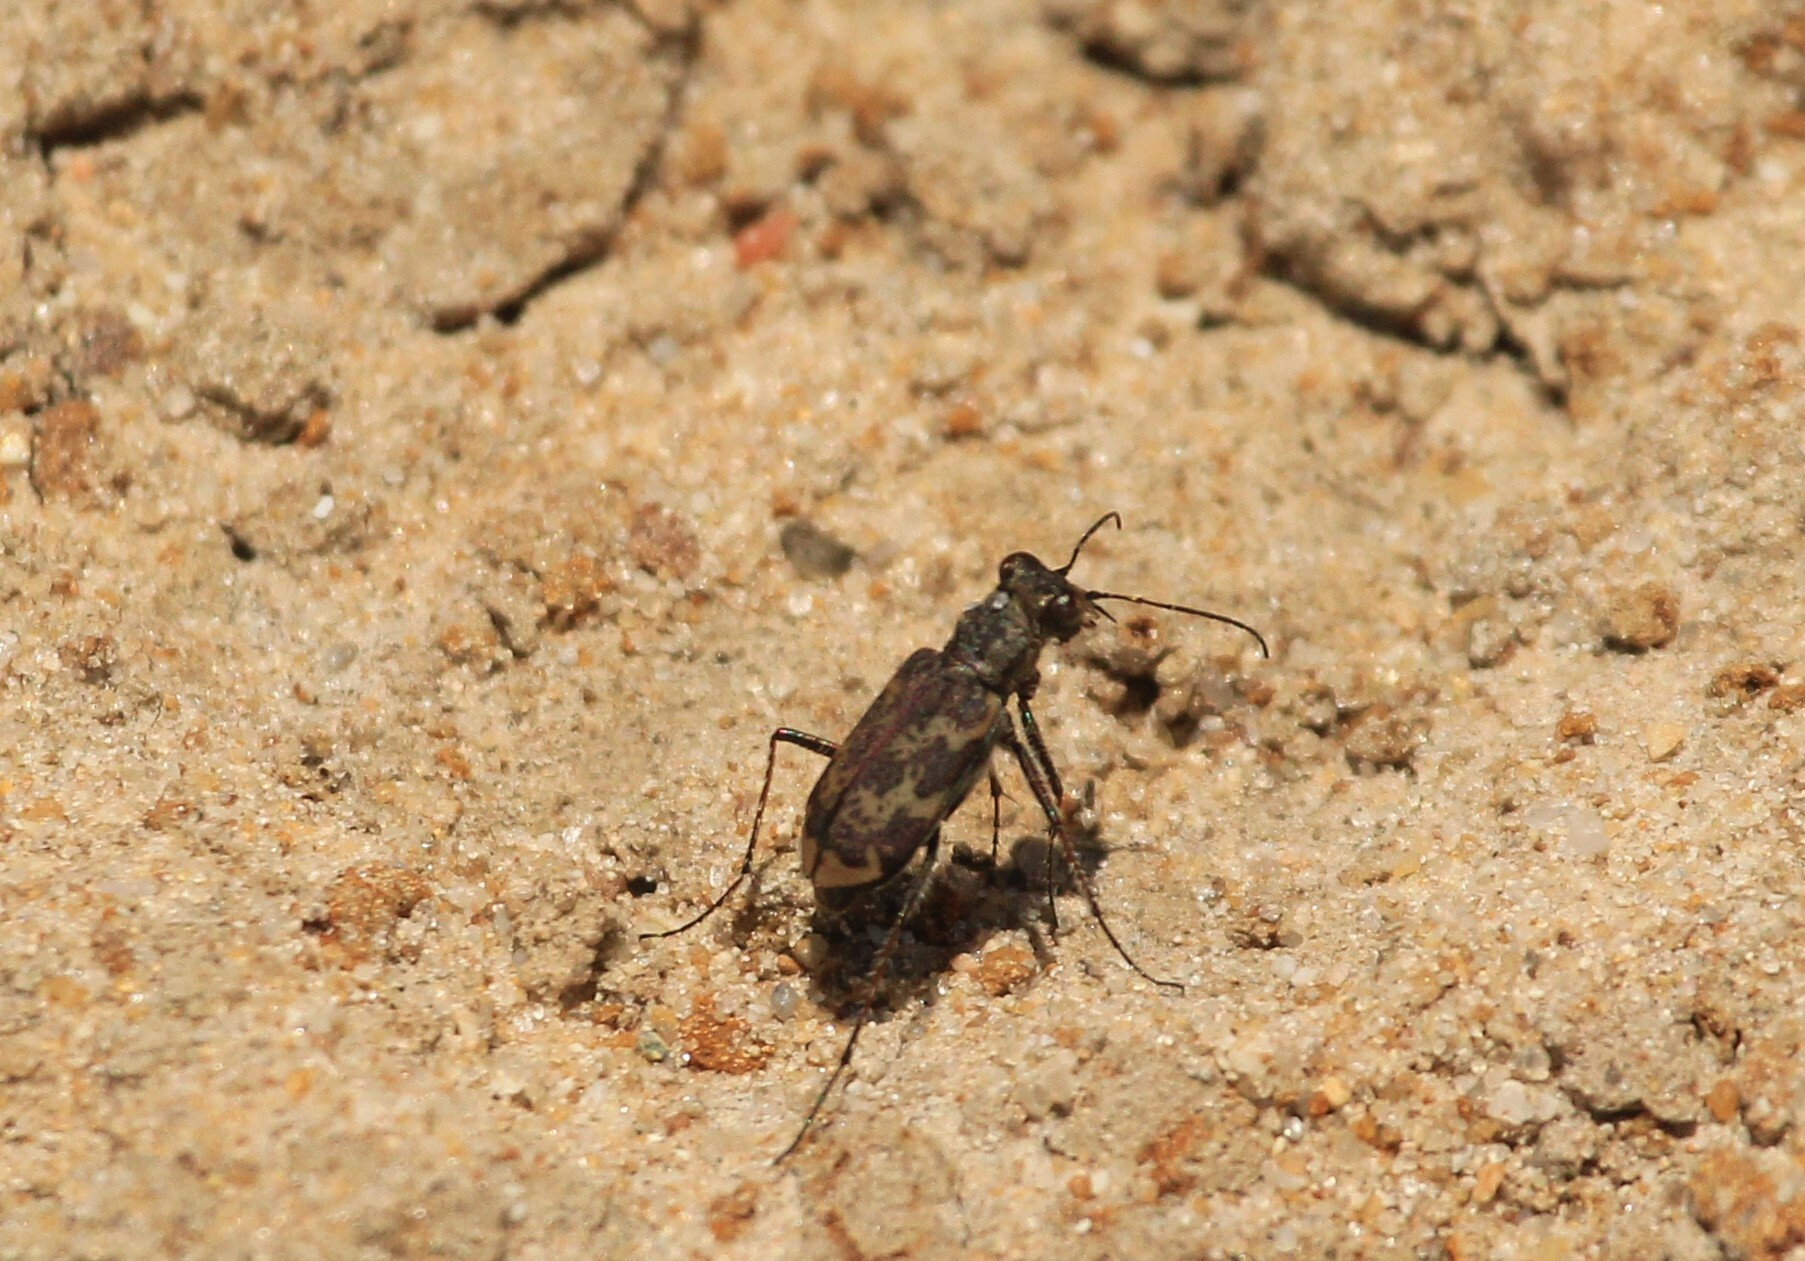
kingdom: Animalia
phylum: Arthropoda
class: Insecta
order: Coleoptera
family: Carabidae
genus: Cylindera
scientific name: Cylindera apiata
